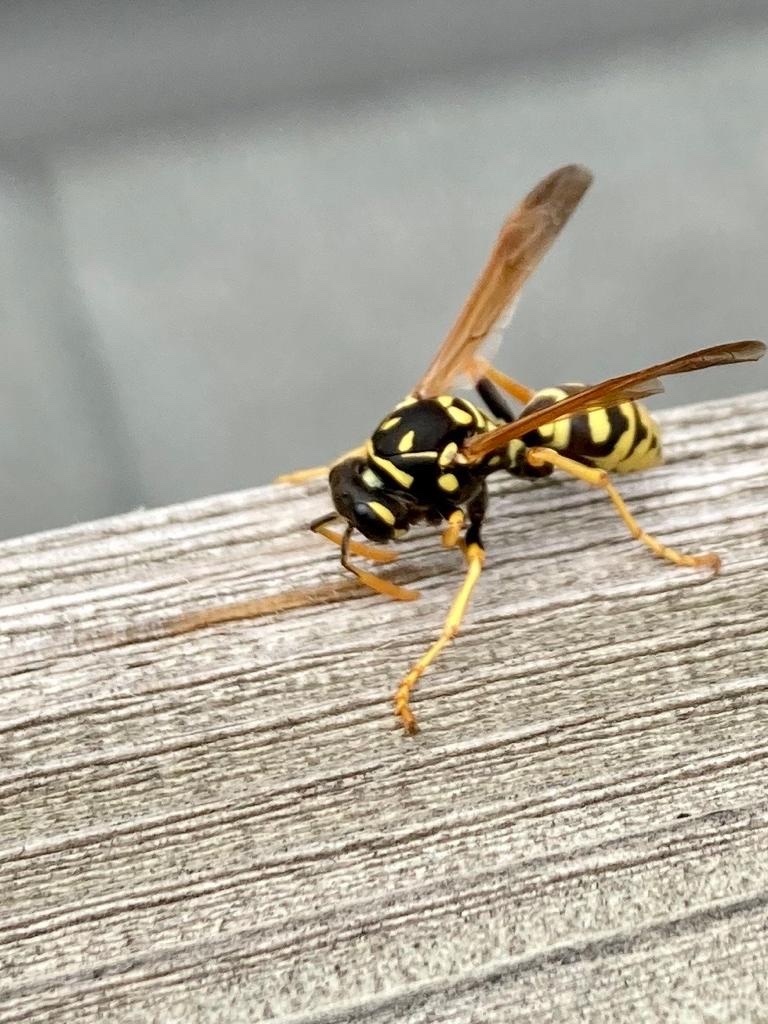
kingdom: Animalia
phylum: Arthropoda
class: Insecta
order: Hymenoptera
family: Eumenidae
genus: Polistes
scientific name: Polistes dominula
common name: Paper wasp
